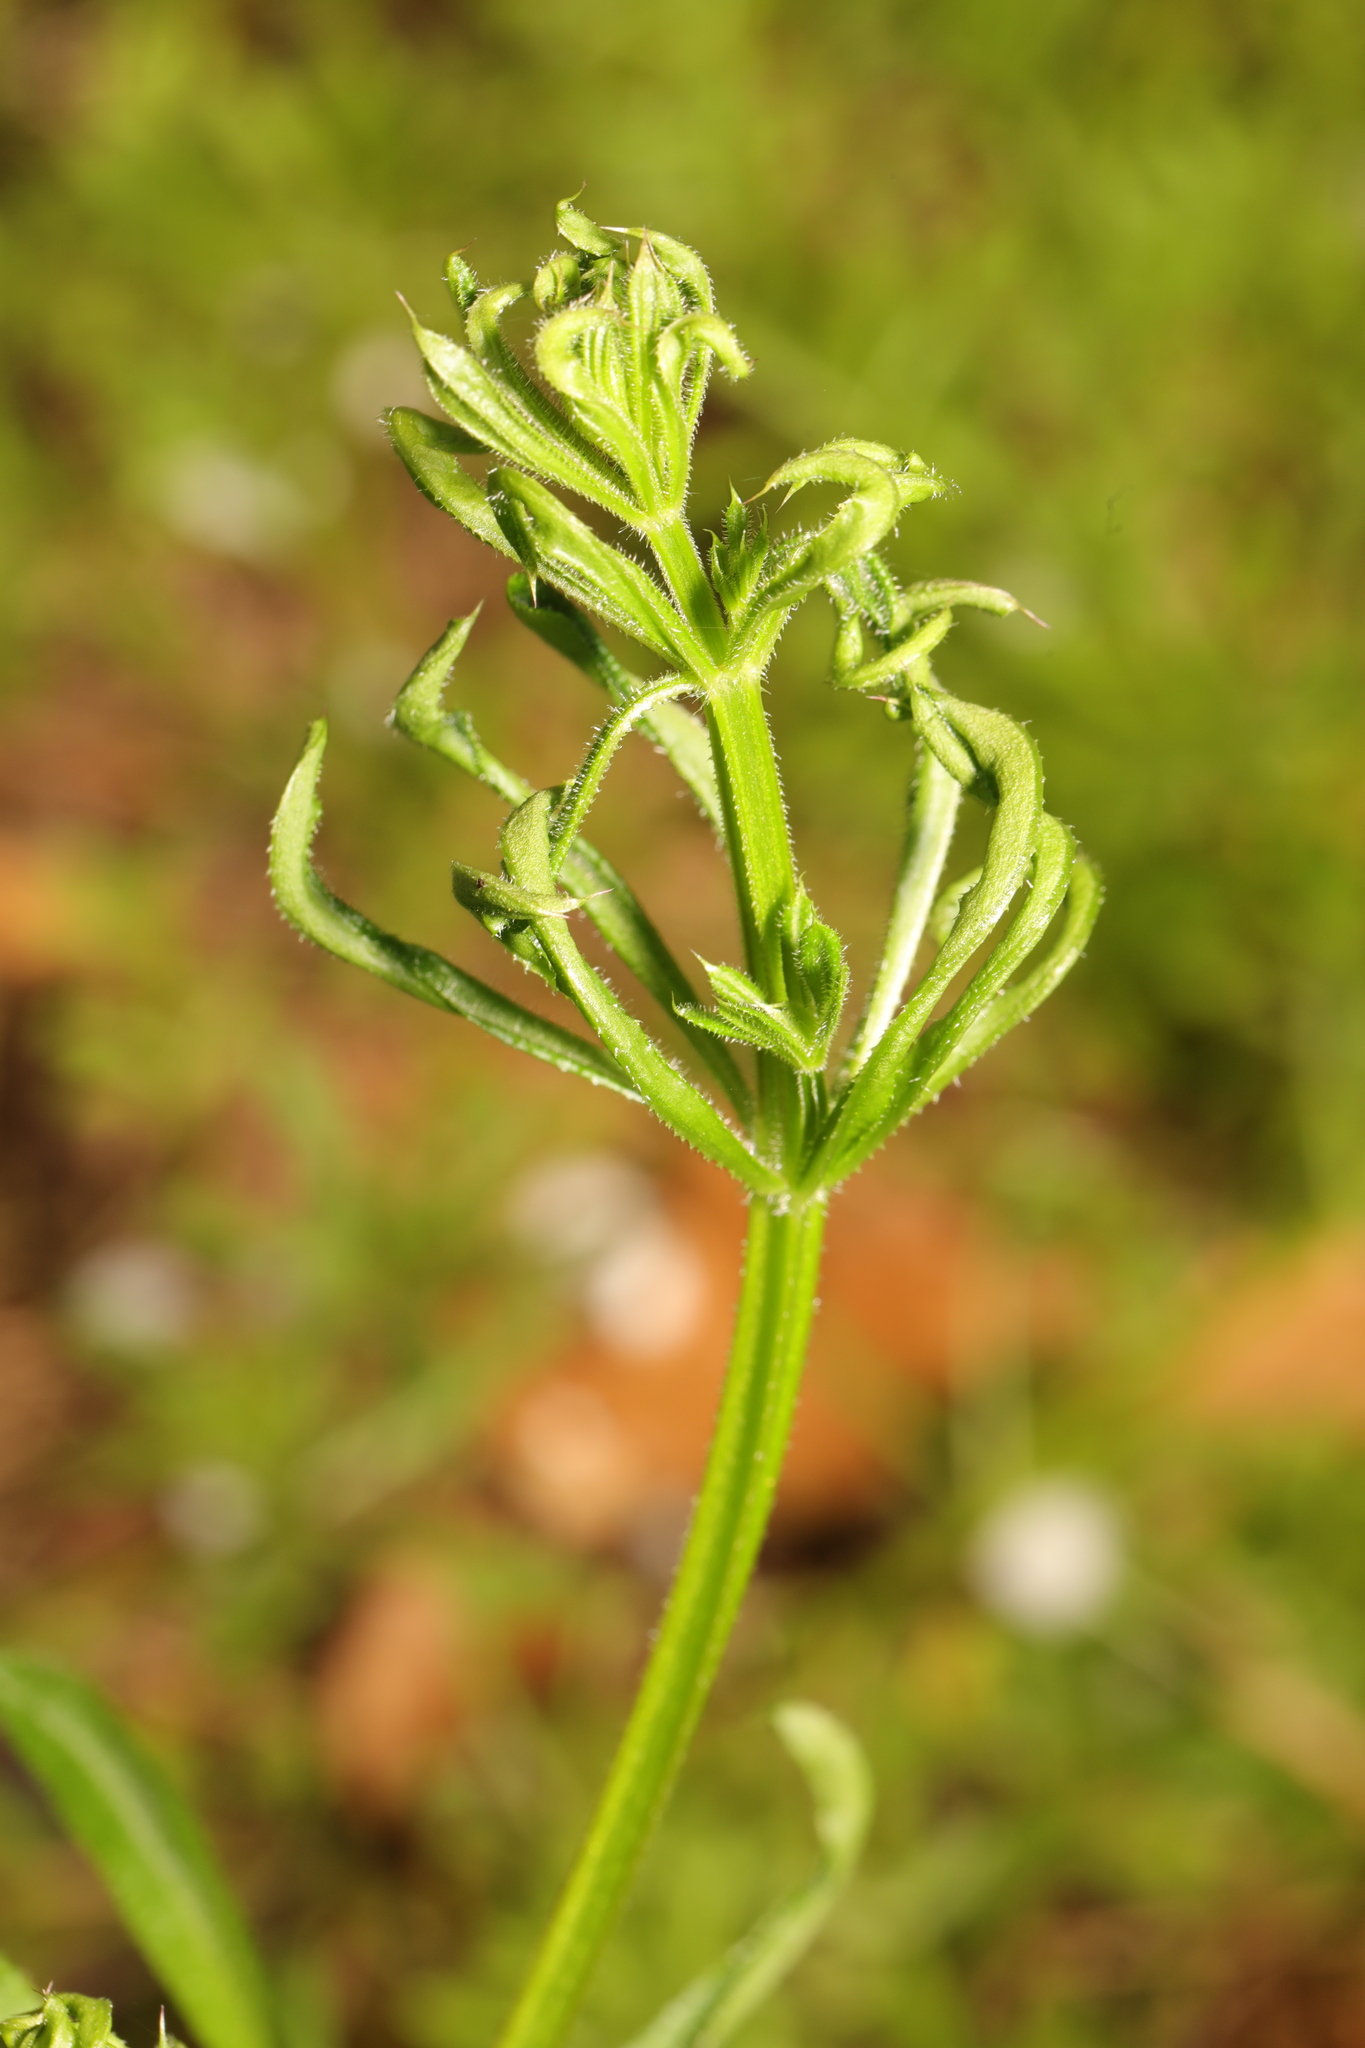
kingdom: Animalia
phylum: Arthropoda
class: Arachnida
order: Trombidiformes
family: Eriophyidae
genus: Cecidophyes
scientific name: Cecidophyes rouhollahi
